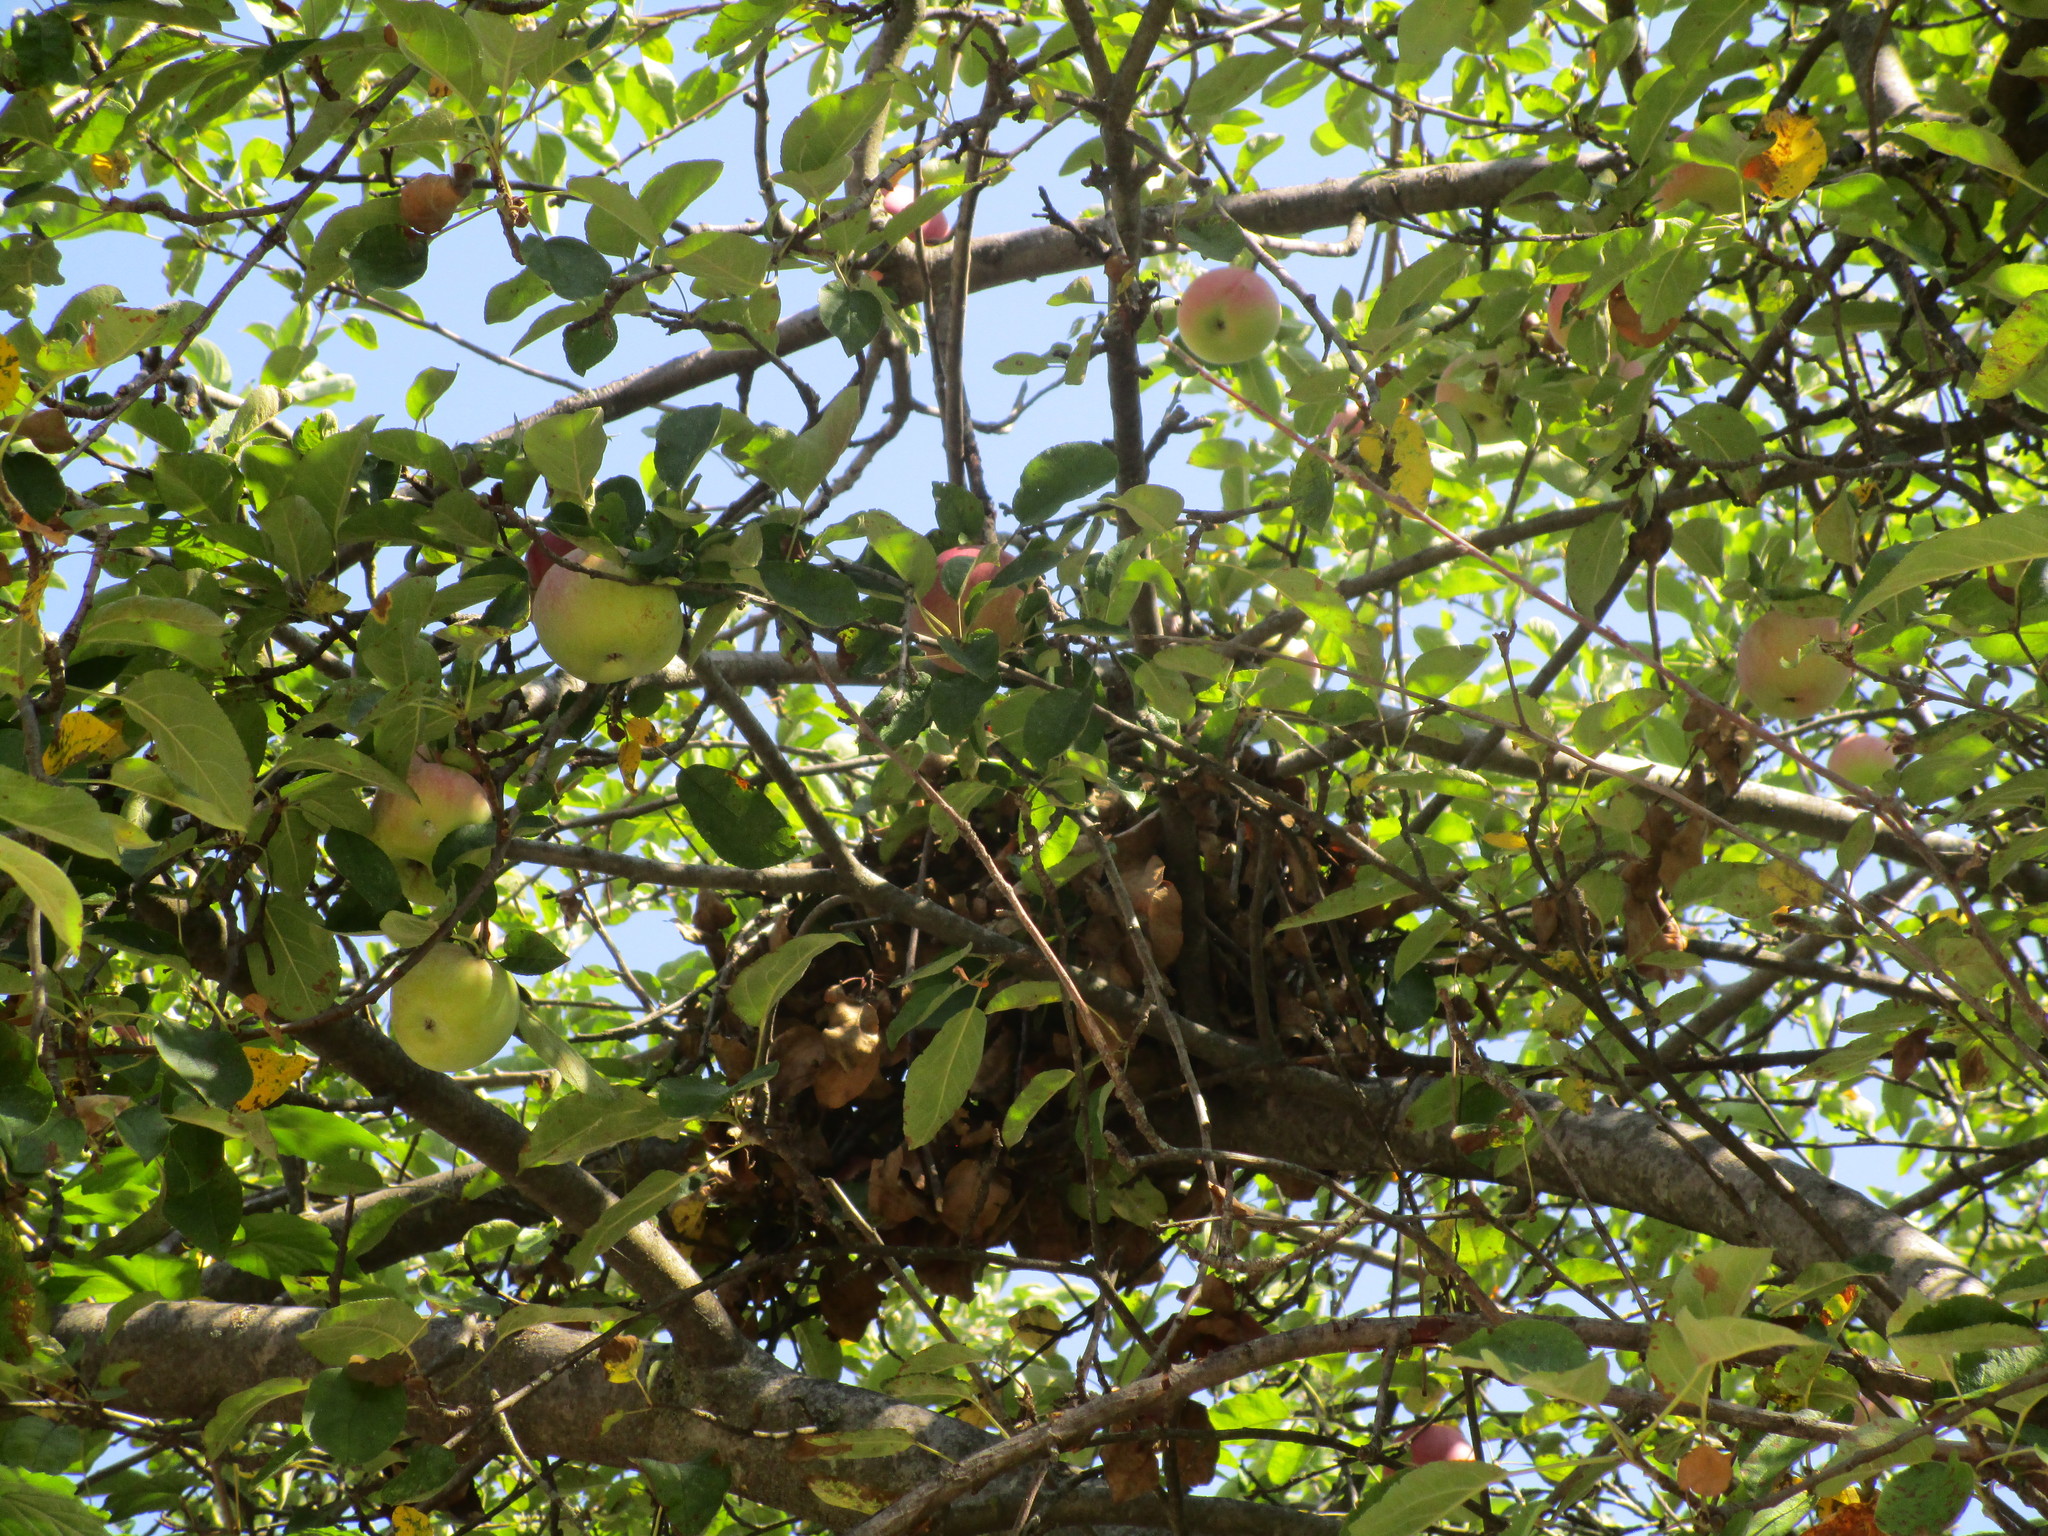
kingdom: Animalia
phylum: Chordata
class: Mammalia
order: Rodentia
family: Sciuridae
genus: Sciurus
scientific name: Sciurus carolinensis
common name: Eastern gray squirrel
